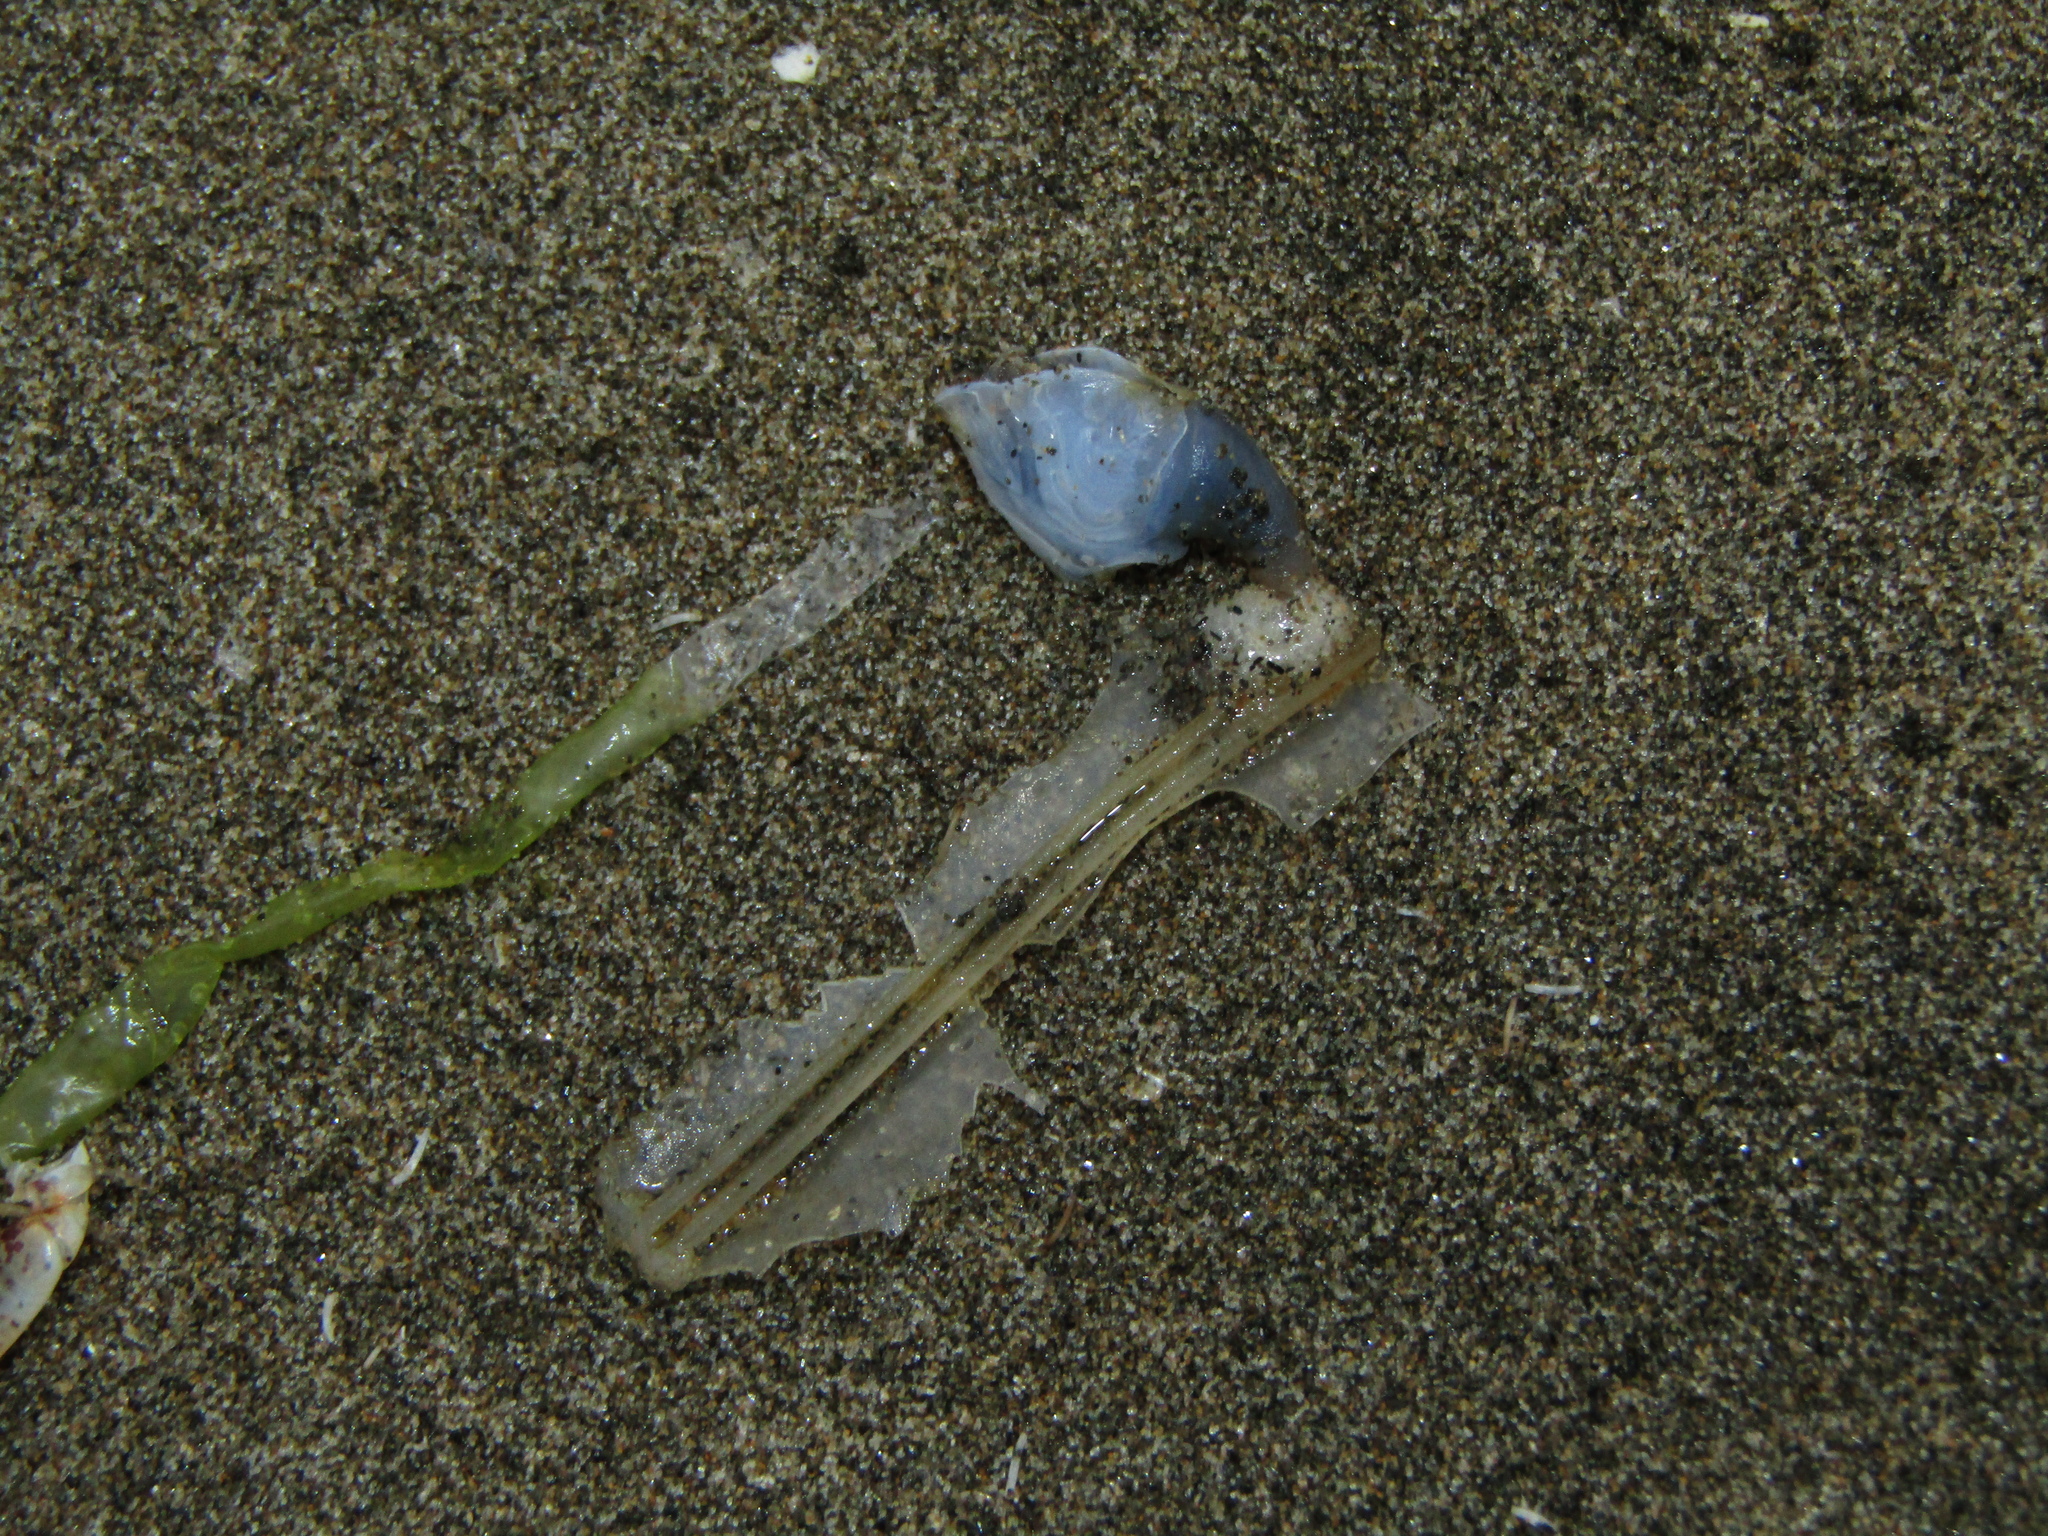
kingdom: Animalia
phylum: Arthropoda
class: Maxillopoda
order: Pedunculata
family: Lepadidae
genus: Dosima
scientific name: Dosima fascicularis
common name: Buoy barnacle
